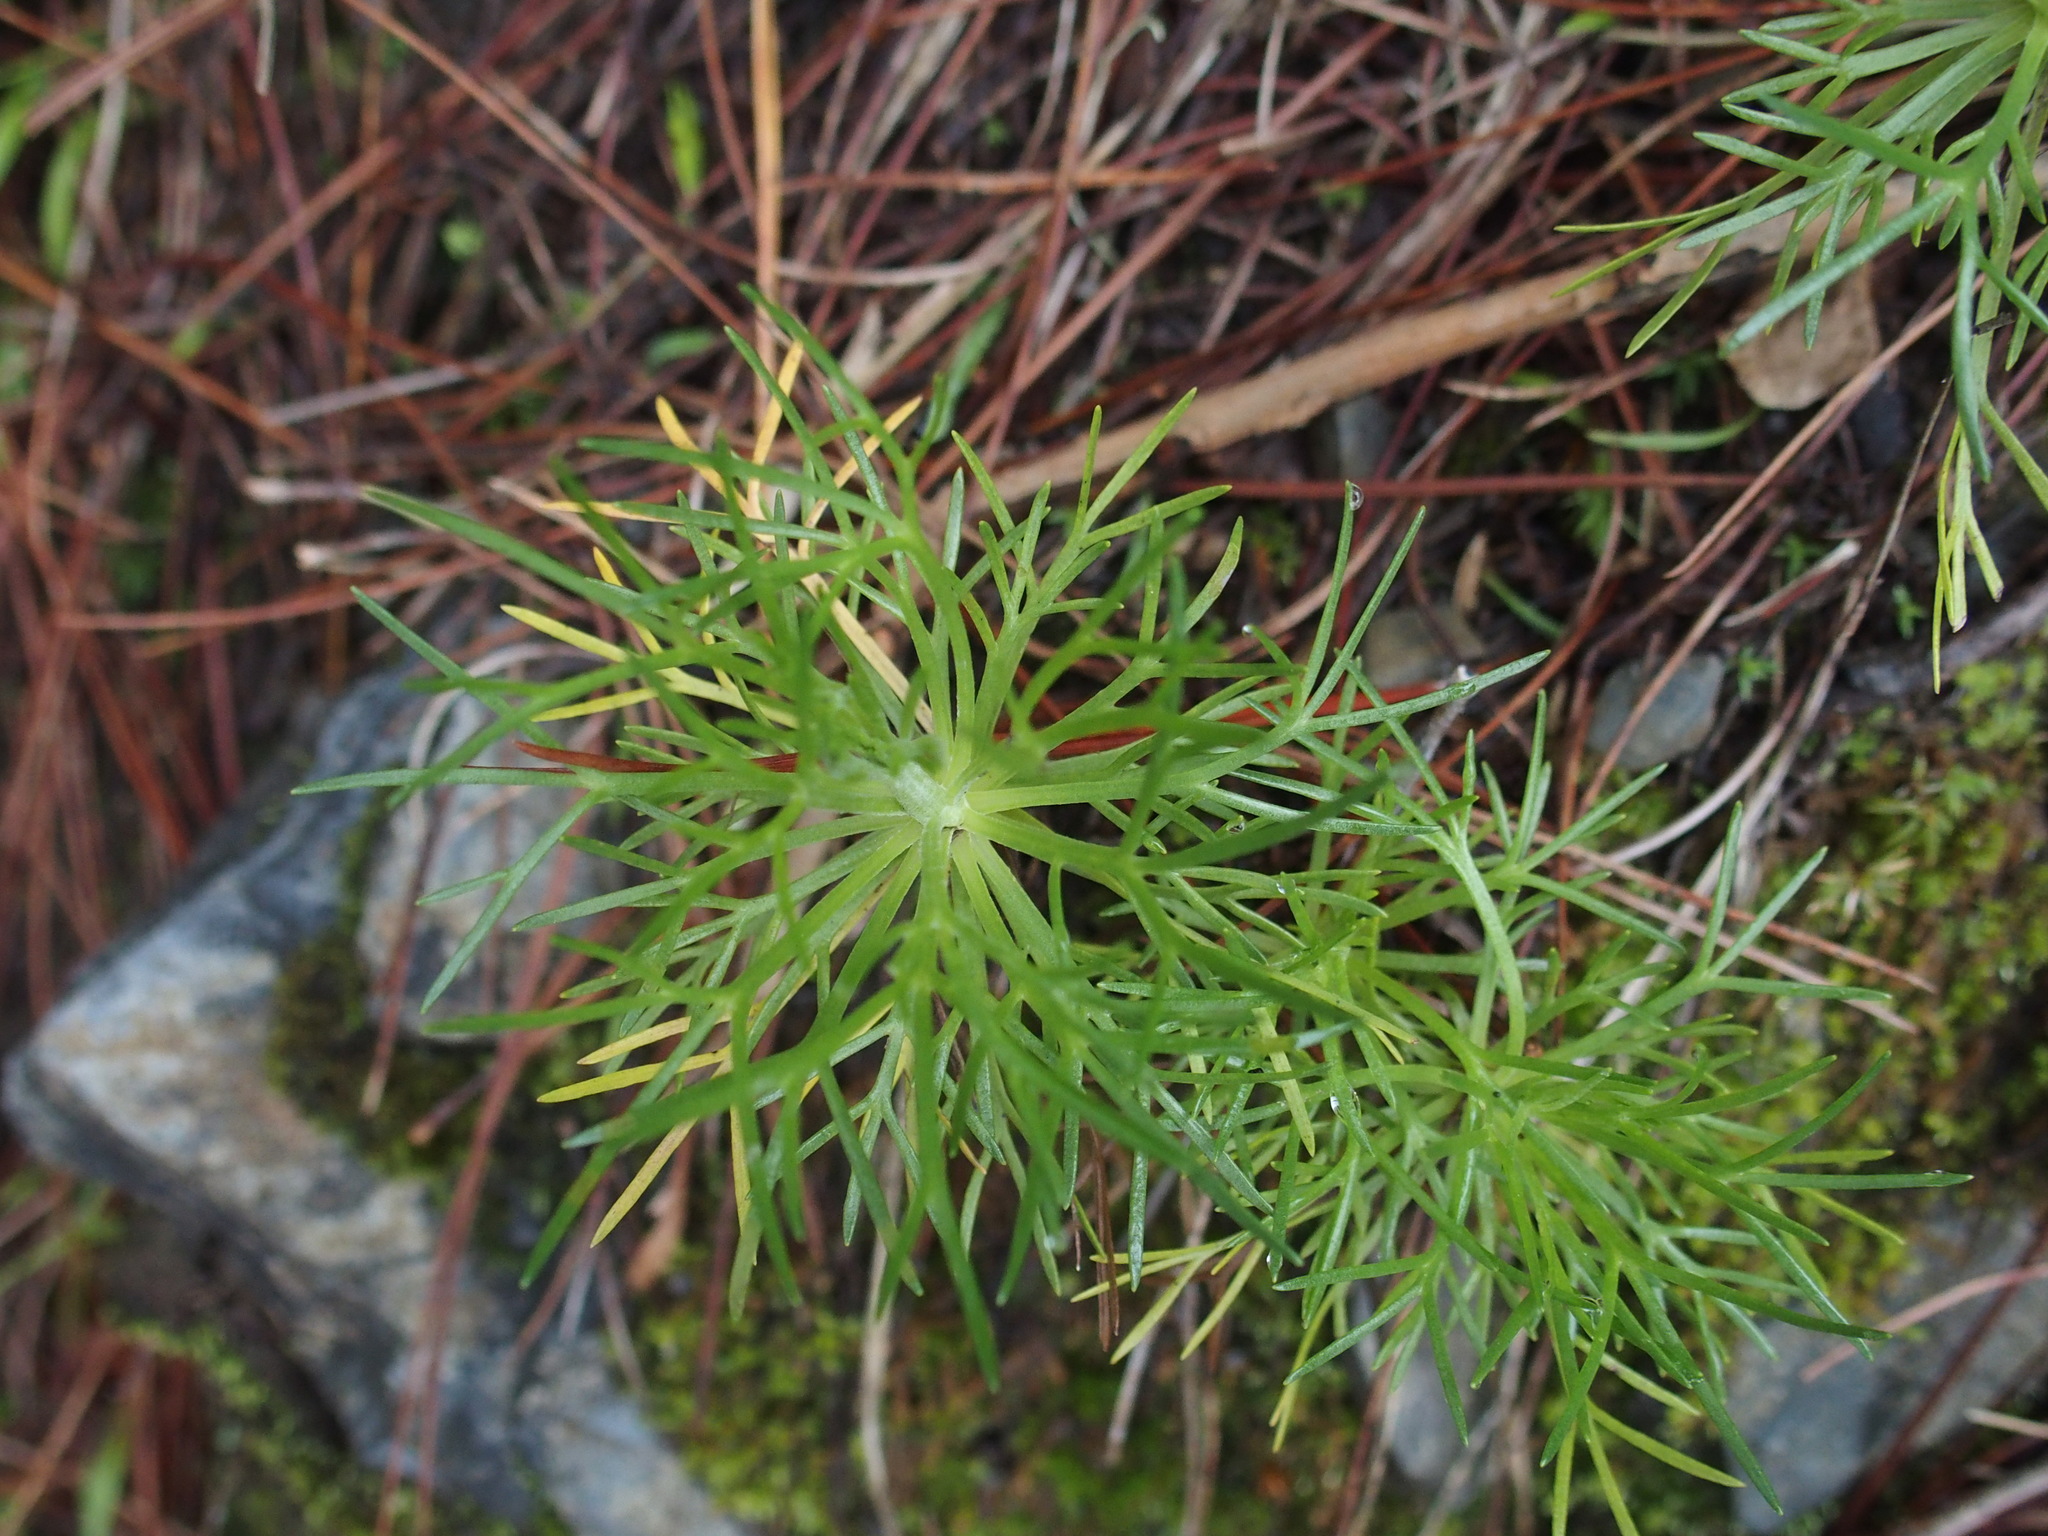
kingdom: Plantae
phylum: Tracheophyta
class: Magnoliopsida
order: Asterales
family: Asteraceae
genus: Artemisia
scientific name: Artemisia morrisonensis
